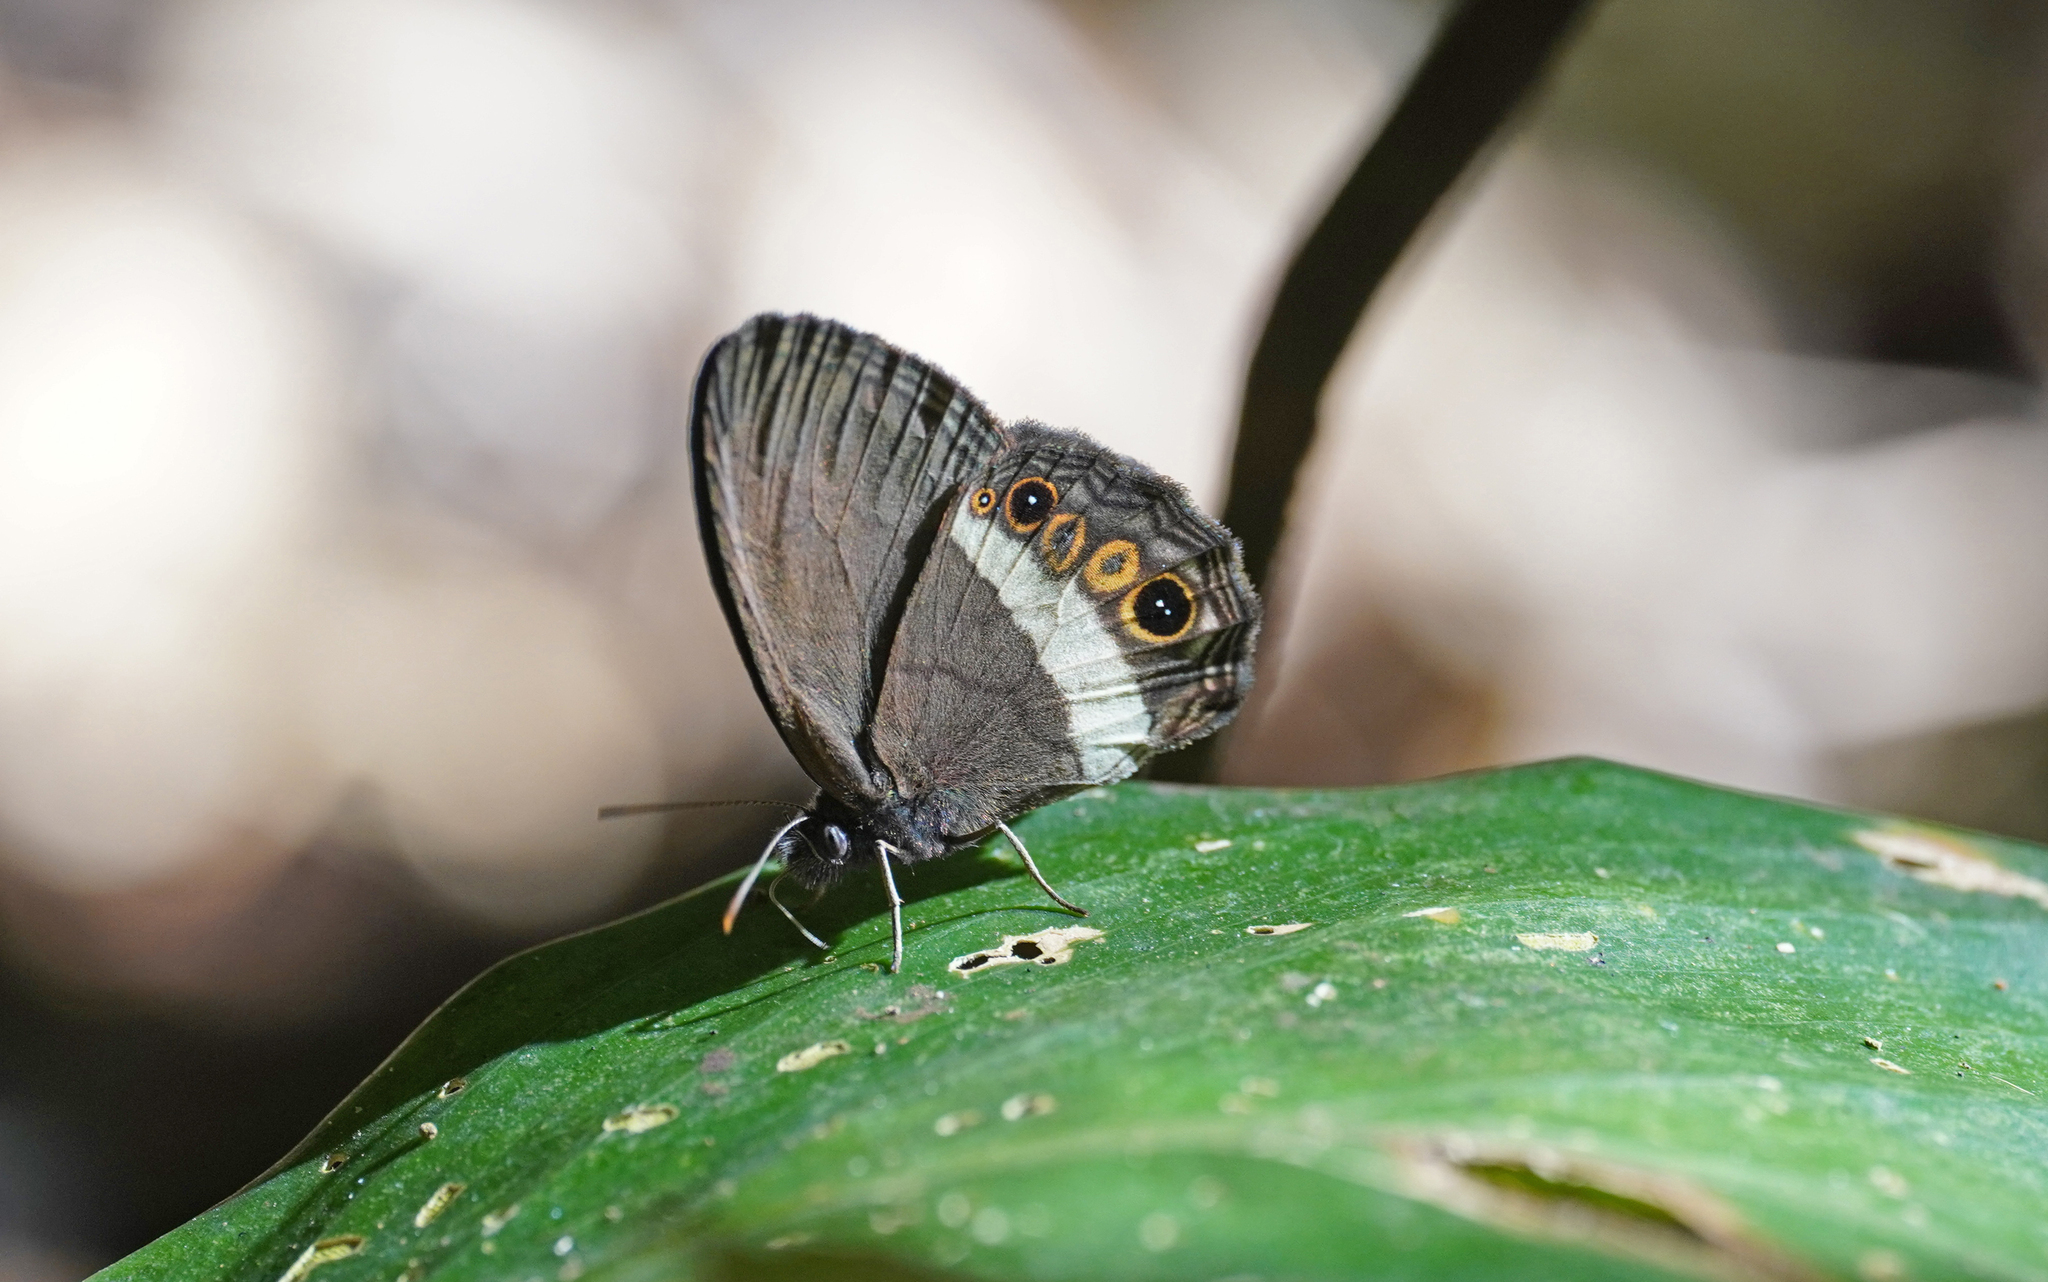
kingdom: Animalia
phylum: Arthropoda
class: Insecta
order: Lepidoptera
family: Nymphalidae
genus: Splendeuptychia
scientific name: Splendeuptychia ashna
